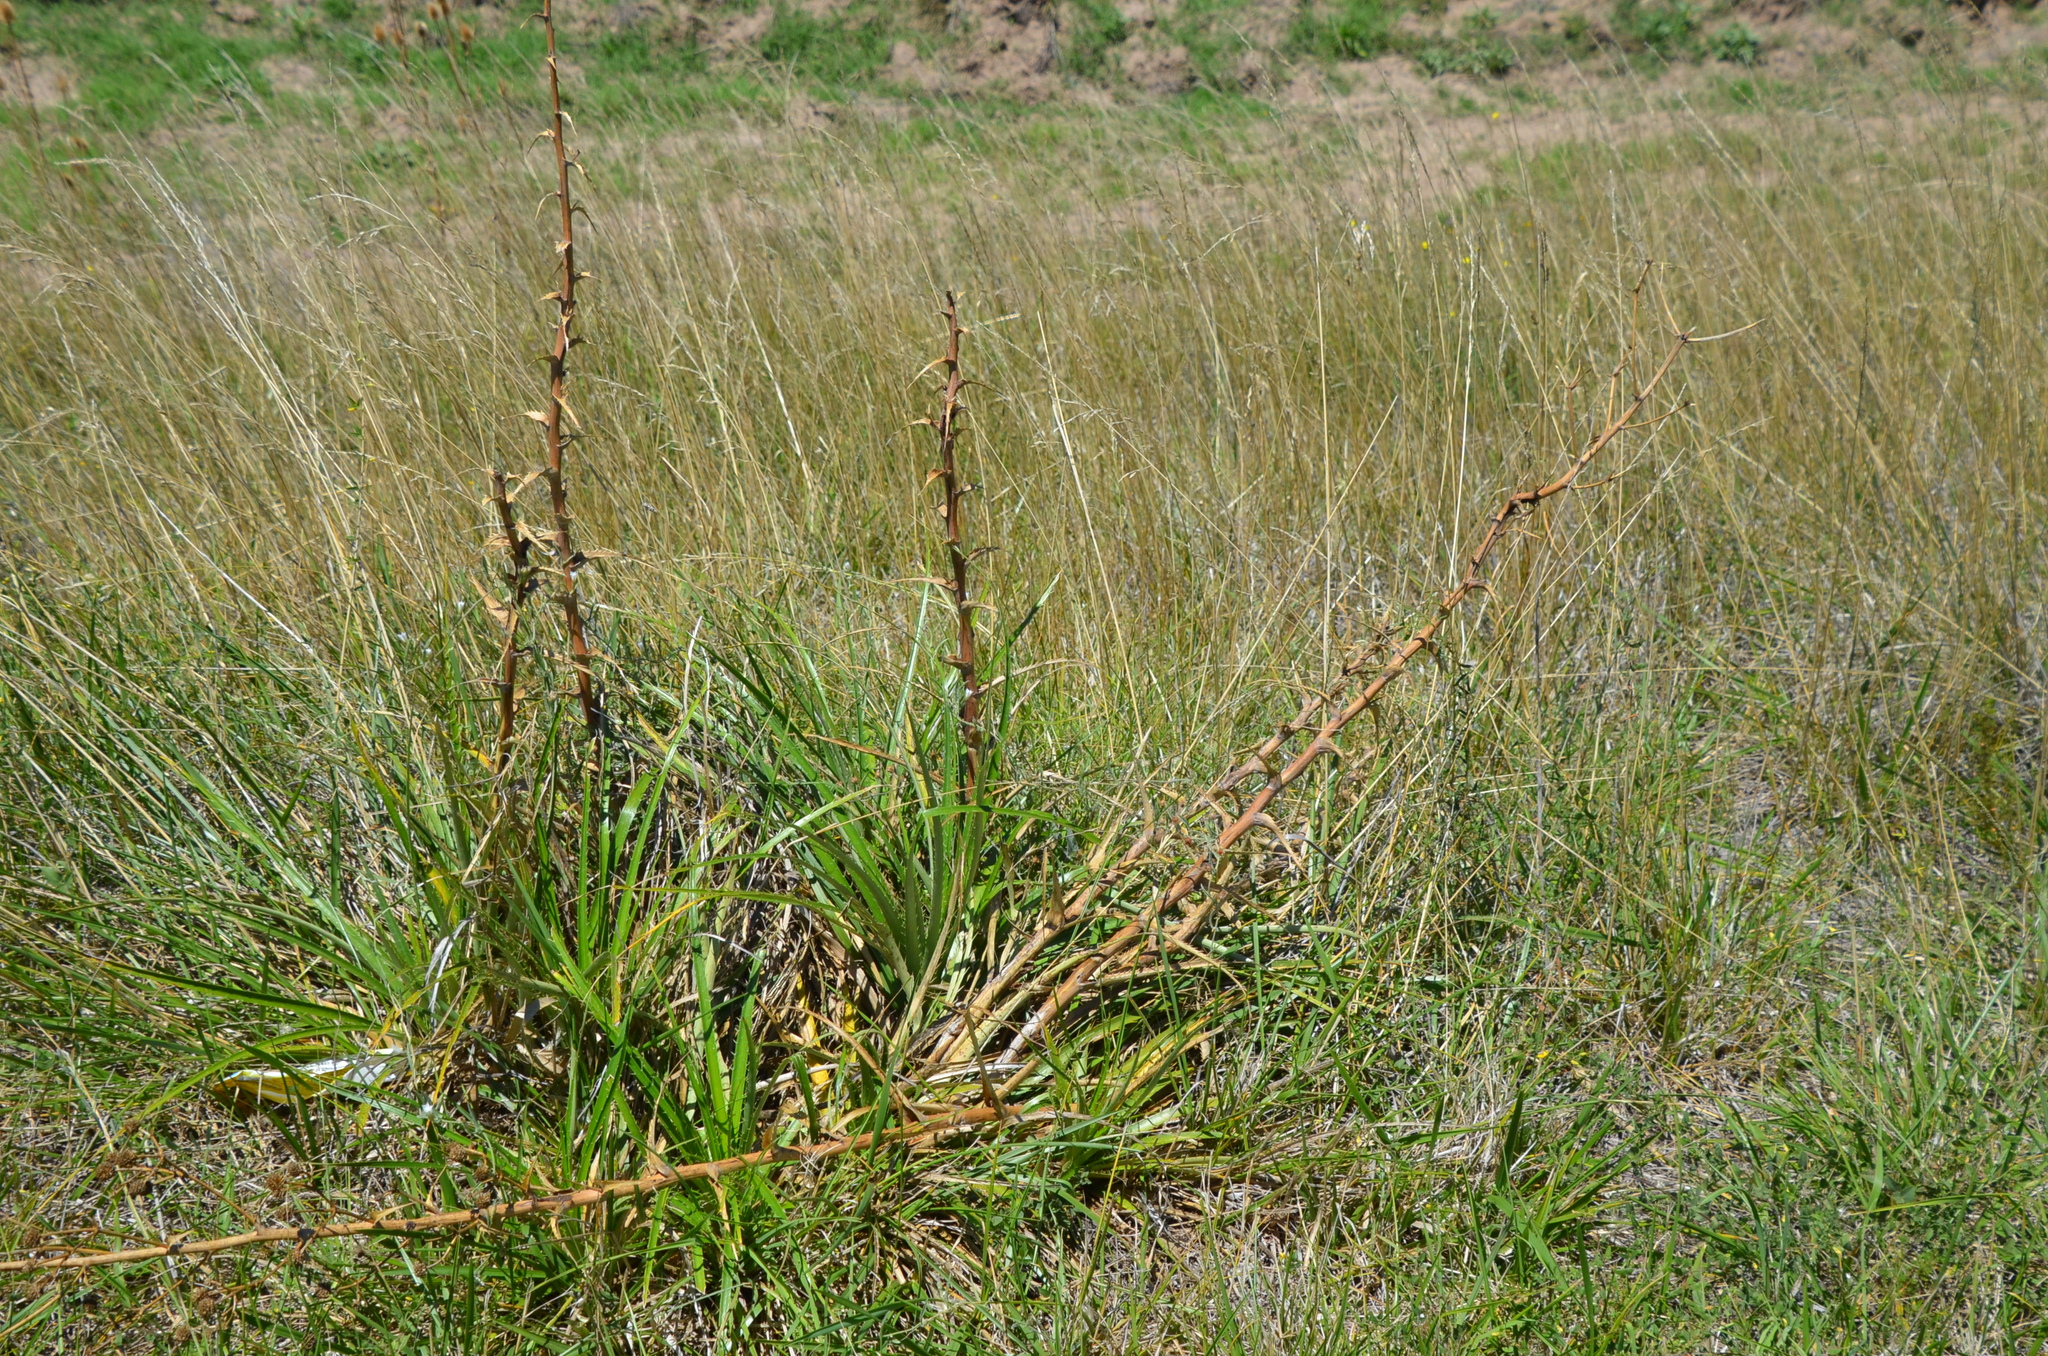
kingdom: Plantae
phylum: Tracheophyta
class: Magnoliopsida
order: Apiales
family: Apiaceae
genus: Eryngium
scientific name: Eryngium humboldtii
